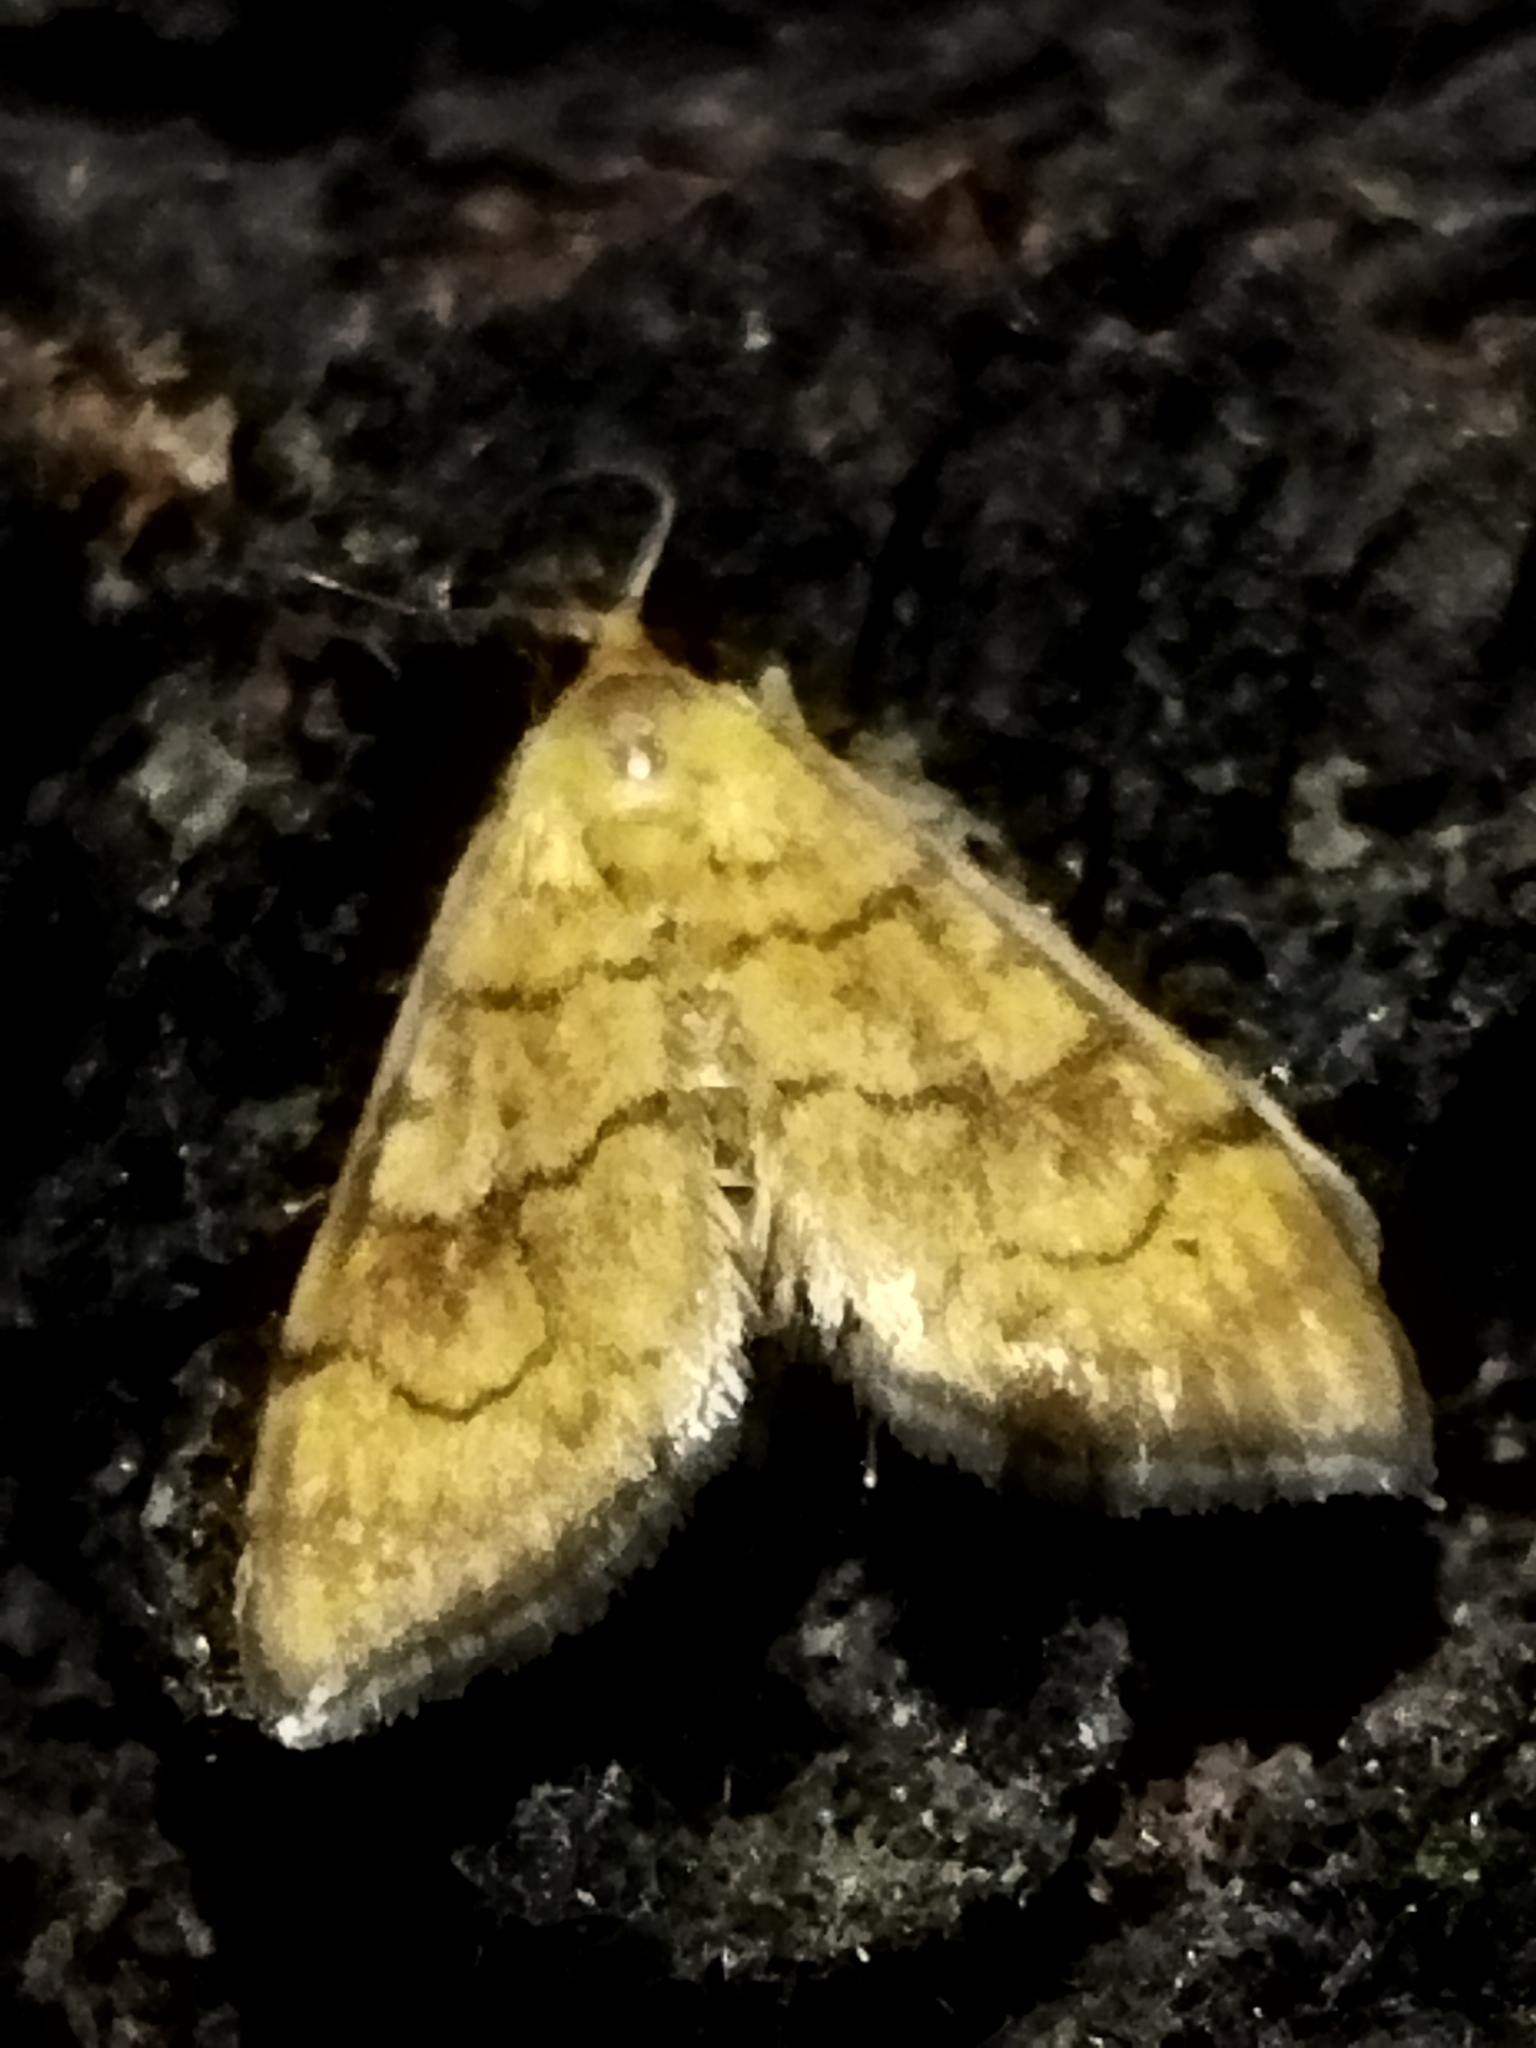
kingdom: Animalia
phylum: Arthropoda
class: Insecta
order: Lepidoptera
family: Crambidae
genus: Anania
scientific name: Anania verbascalis
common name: Golden pearl
